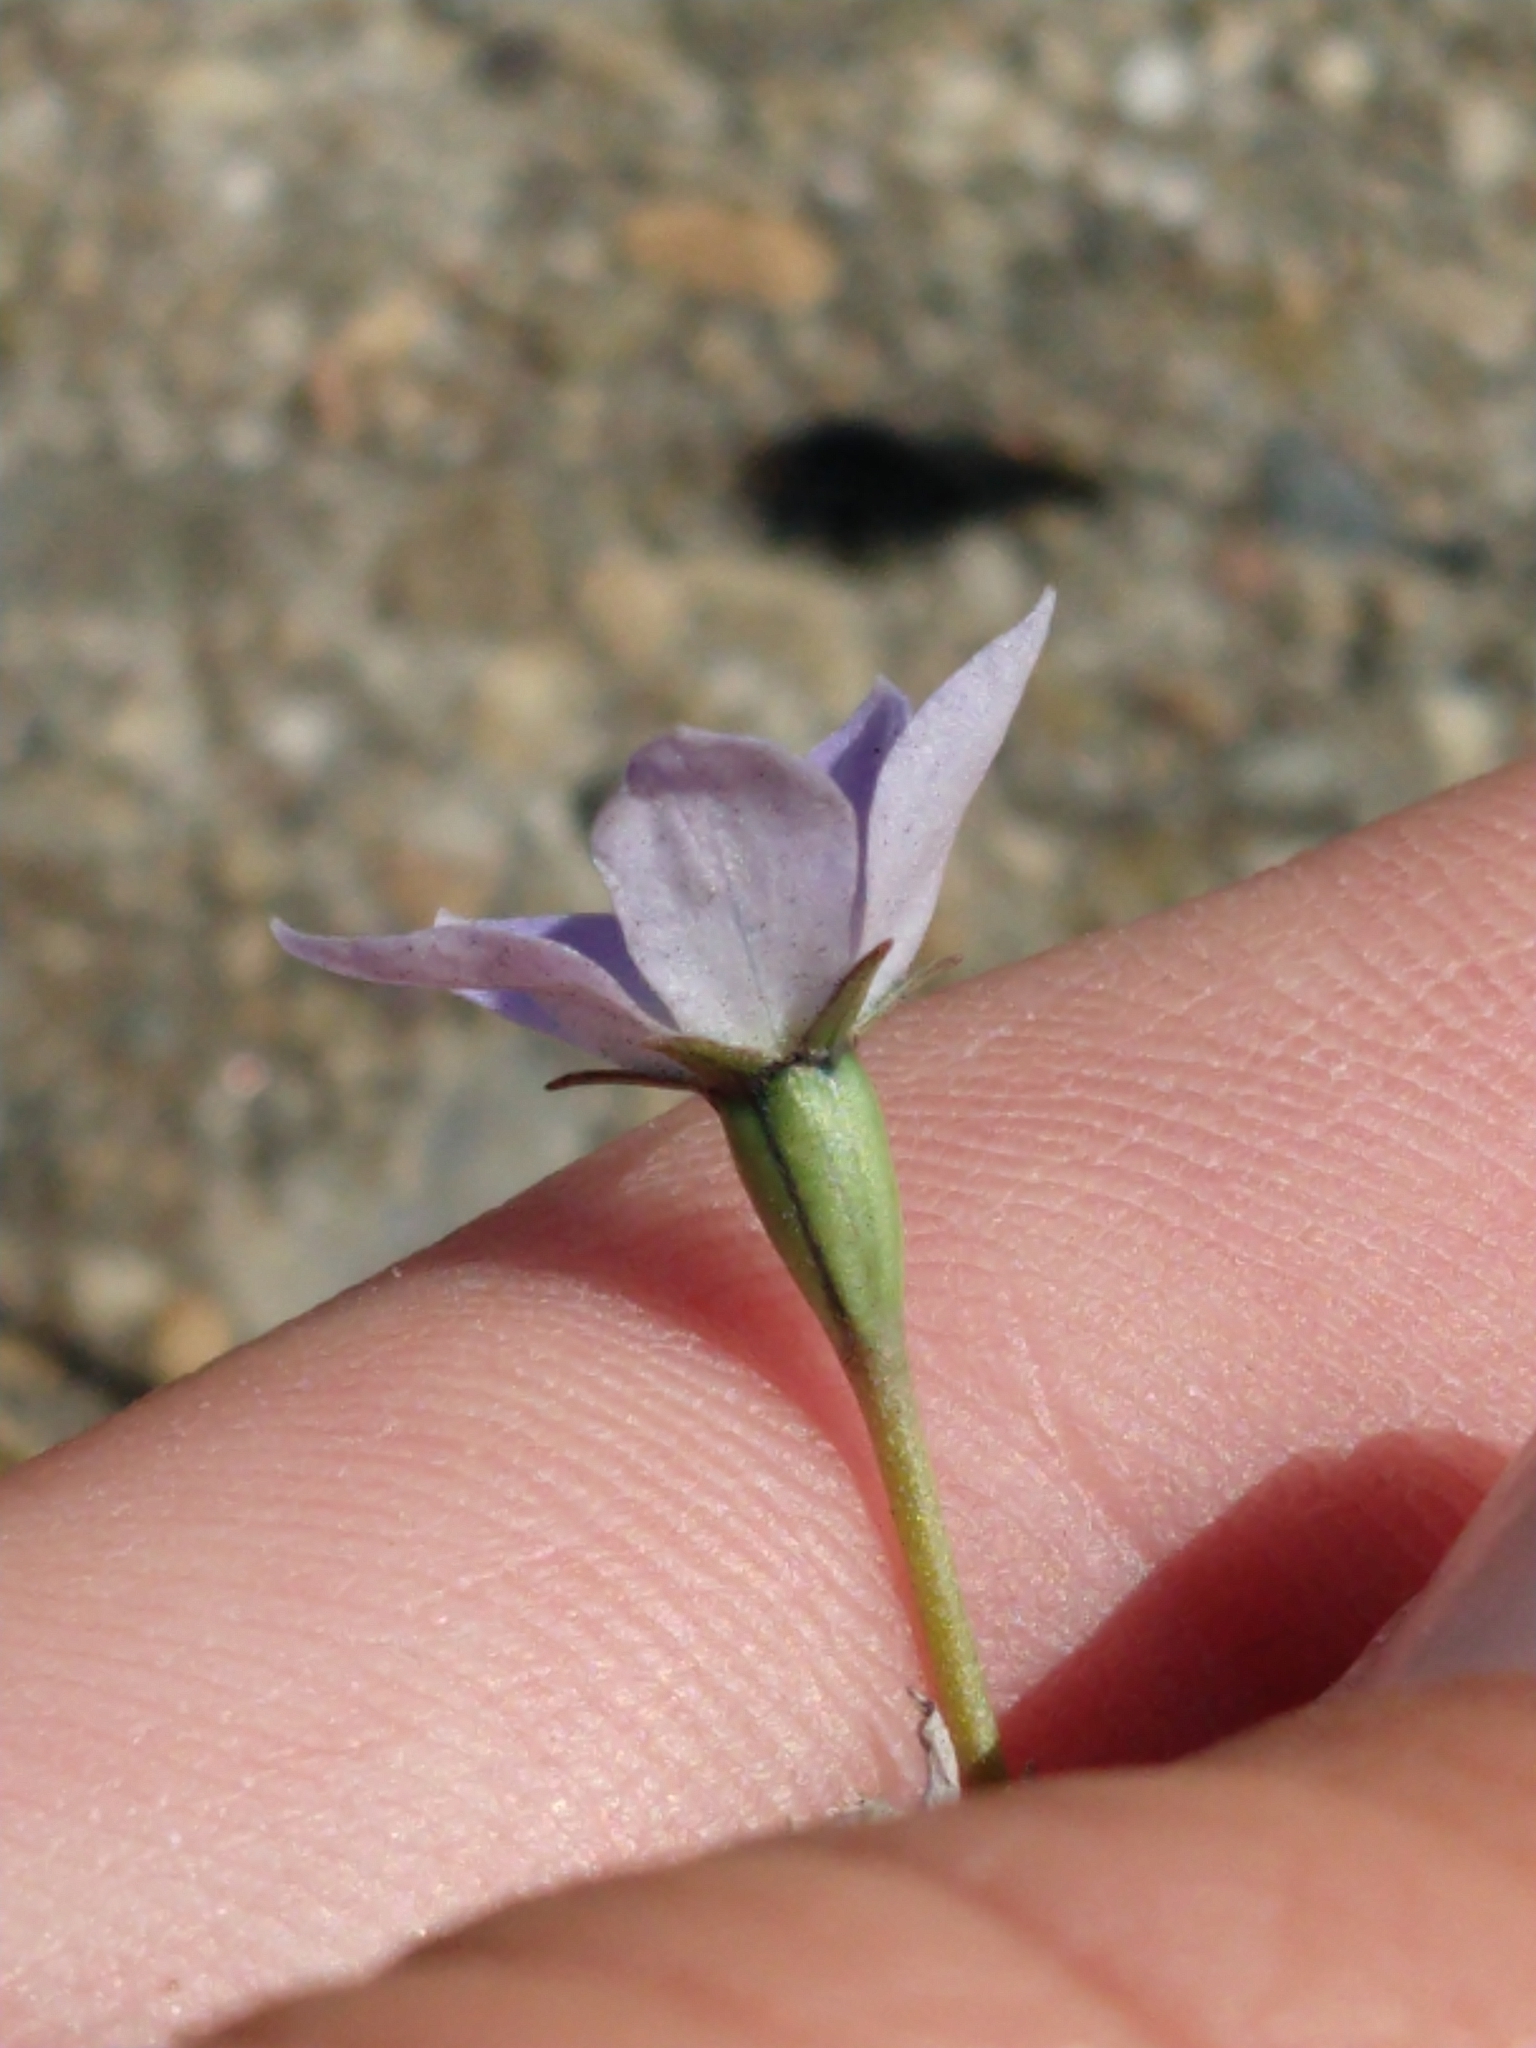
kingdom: Plantae
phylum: Tracheophyta
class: Magnoliopsida
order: Asterales
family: Campanulaceae
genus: Wahlenbergia
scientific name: Wahlenbergia marginata
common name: Southern rockbell
